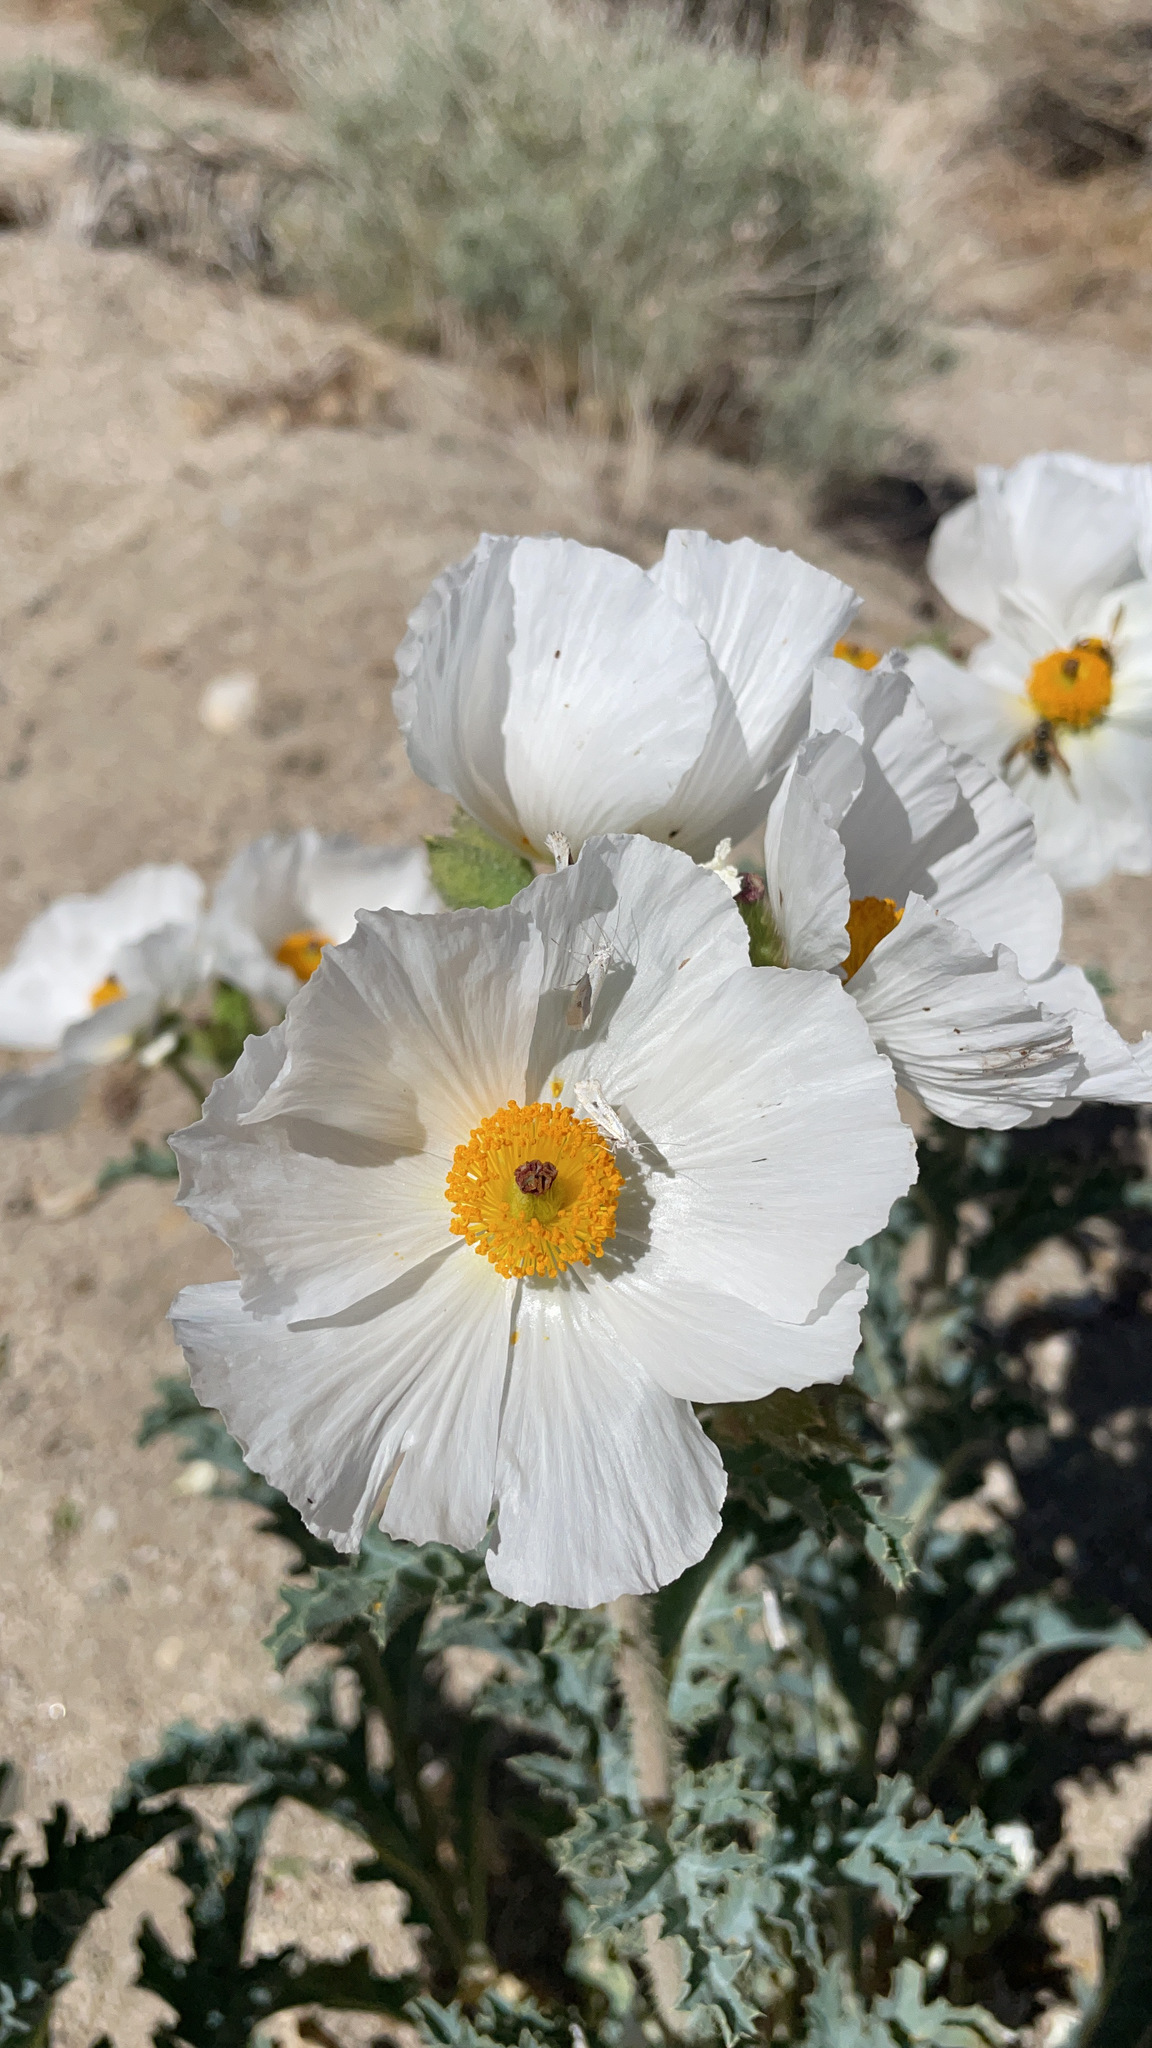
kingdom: Plantae
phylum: Tracheophyta
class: Magnoliopsida
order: Ranunculales
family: Papaveraceae
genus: Argemone
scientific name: Argemone munita
